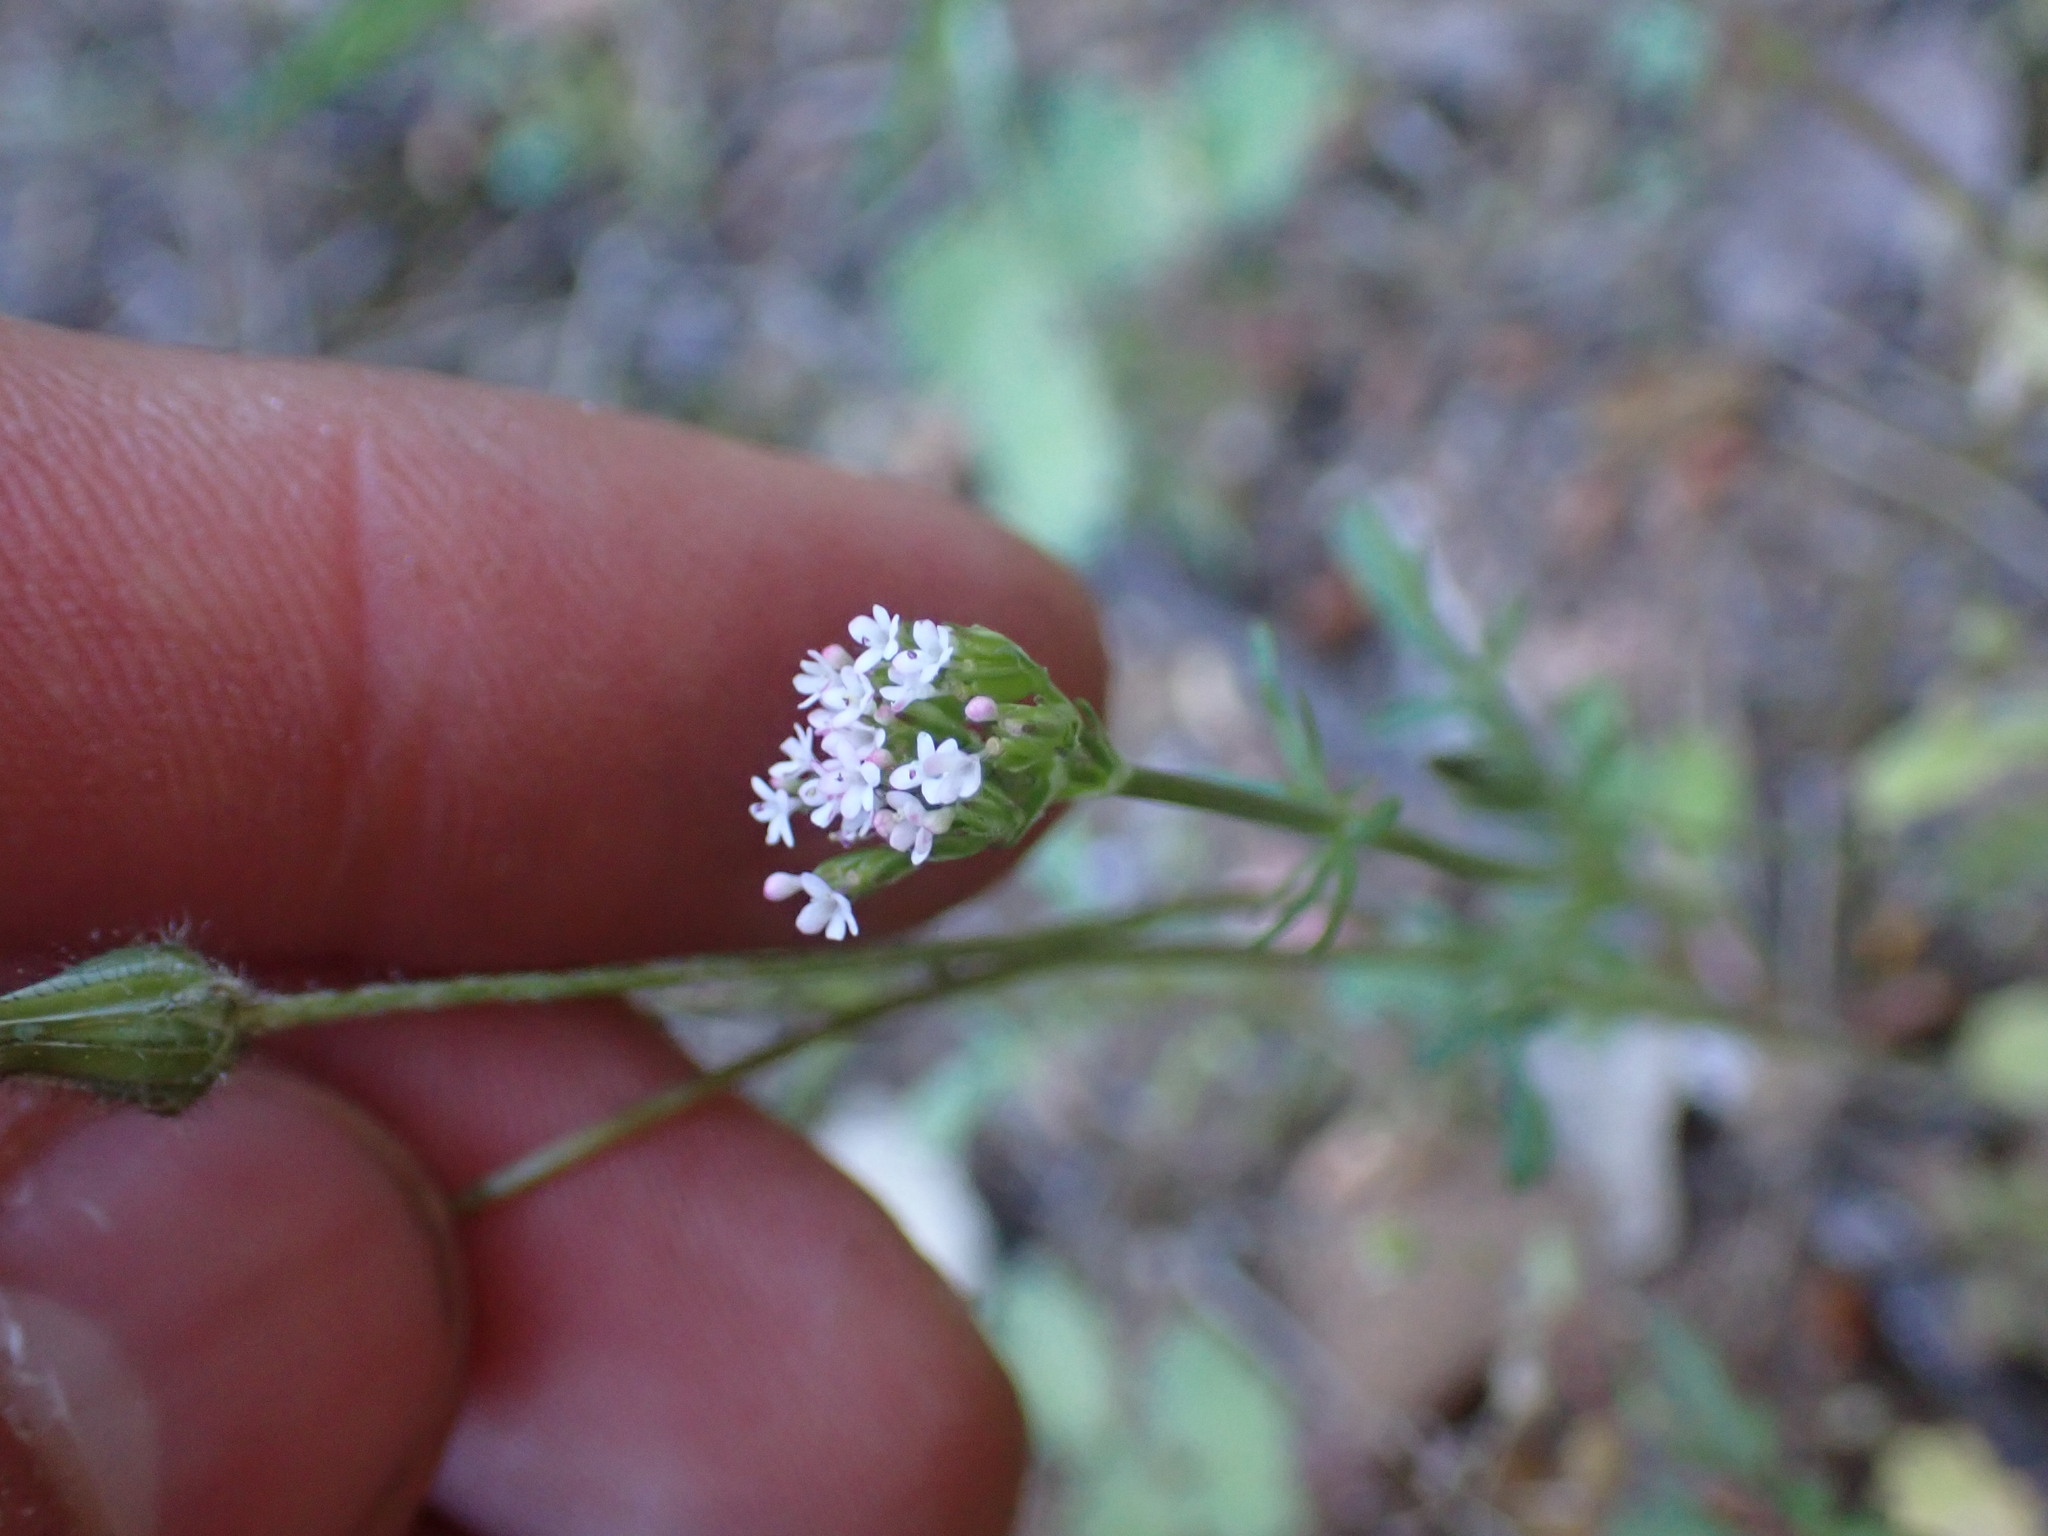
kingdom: Plantae
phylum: Tracheophyta
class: Magnoliopsida
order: Dipsacales
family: Caprifoliaceae
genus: Centranthus
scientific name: Centranthus calcitrapae
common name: Annual valerian
